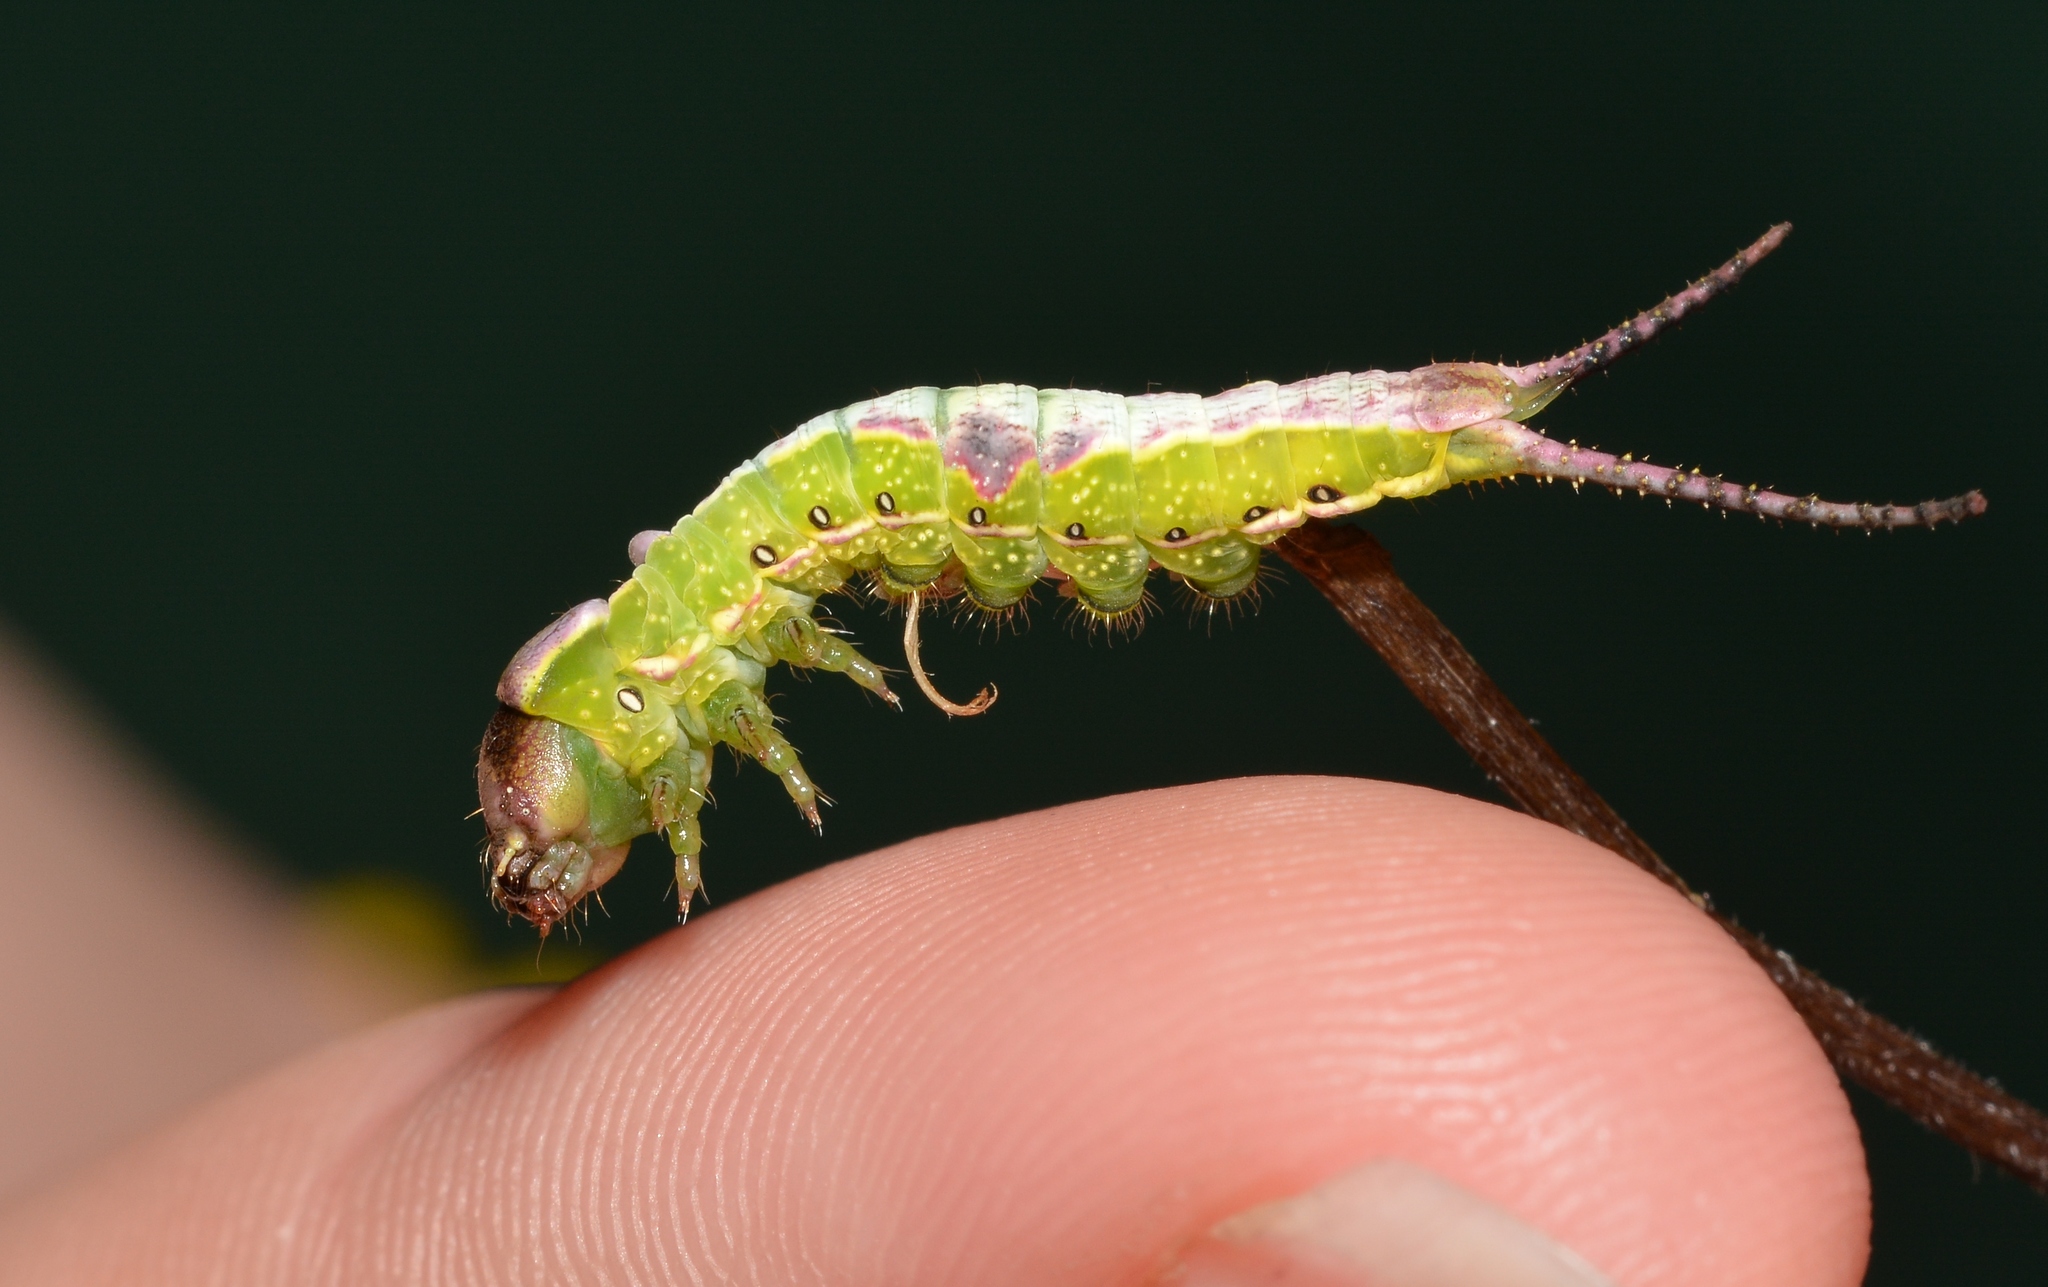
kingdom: Animalia
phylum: Arthropoda
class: Insecta
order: Lepidoptera
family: Notodontidae
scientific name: Notodontidae
